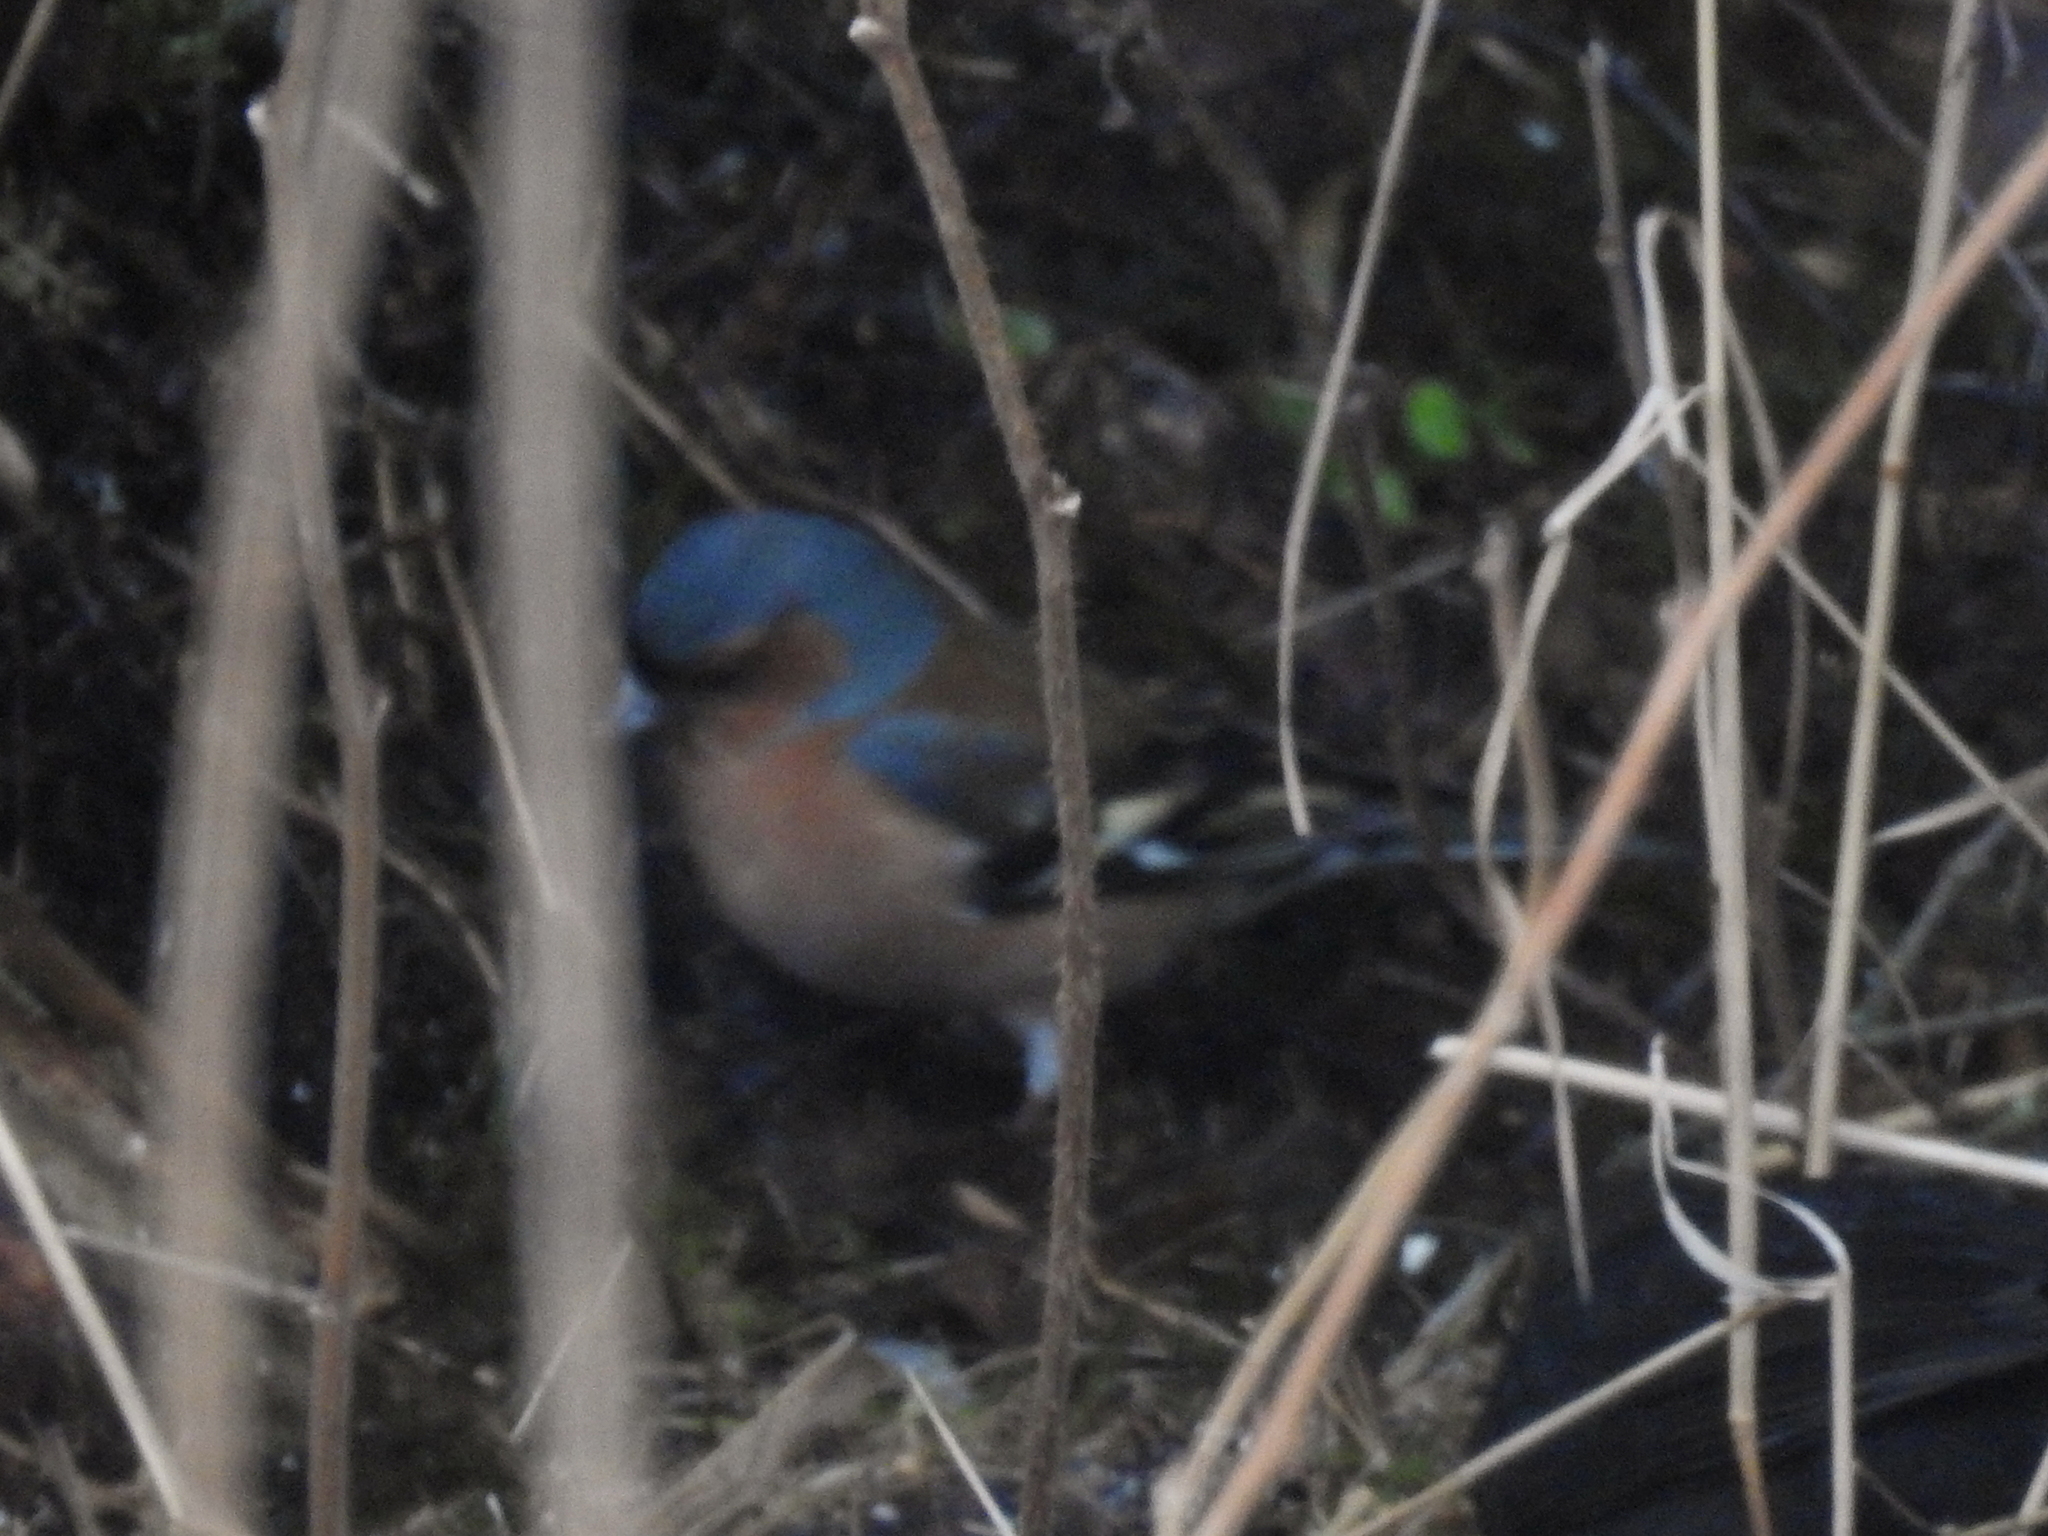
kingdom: Animalia
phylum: Chordata
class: Aves
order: Passeriformes
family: Fringillidae
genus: Fringilla
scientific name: Fringilla coelebs
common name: Common chaffinch
